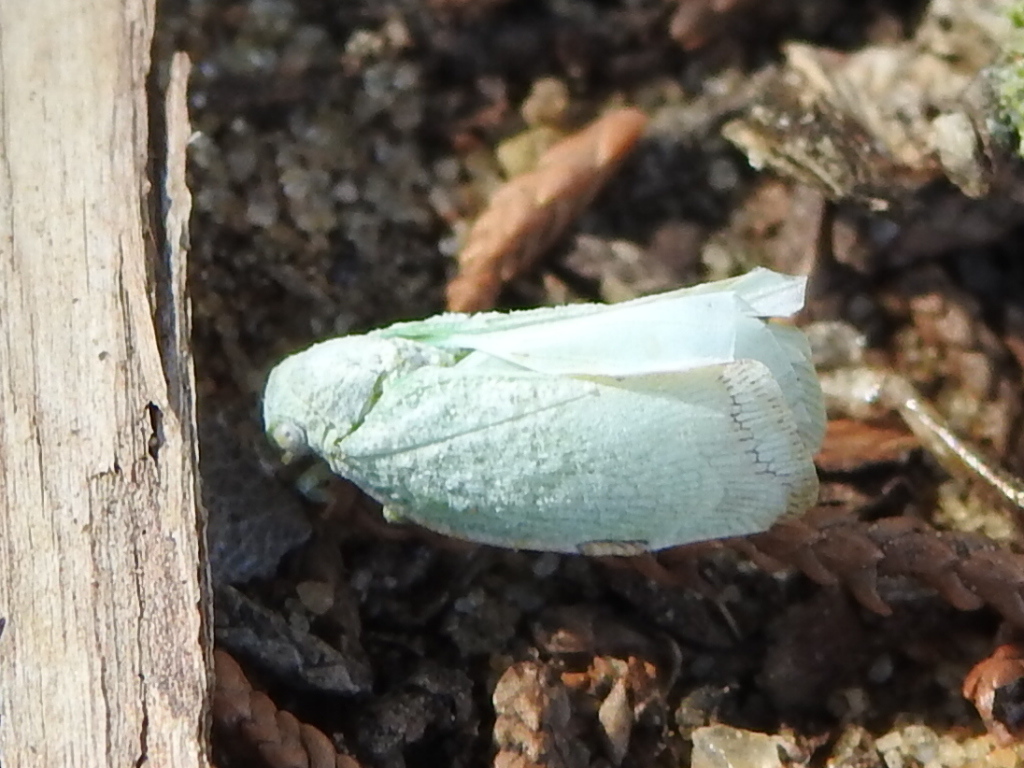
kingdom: Animalia
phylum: Arthropoda
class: Insecta
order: Hemiptera
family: Flatidae
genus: Flatormenis
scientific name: Flatormenis proxima
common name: Northern flatid planthopper
